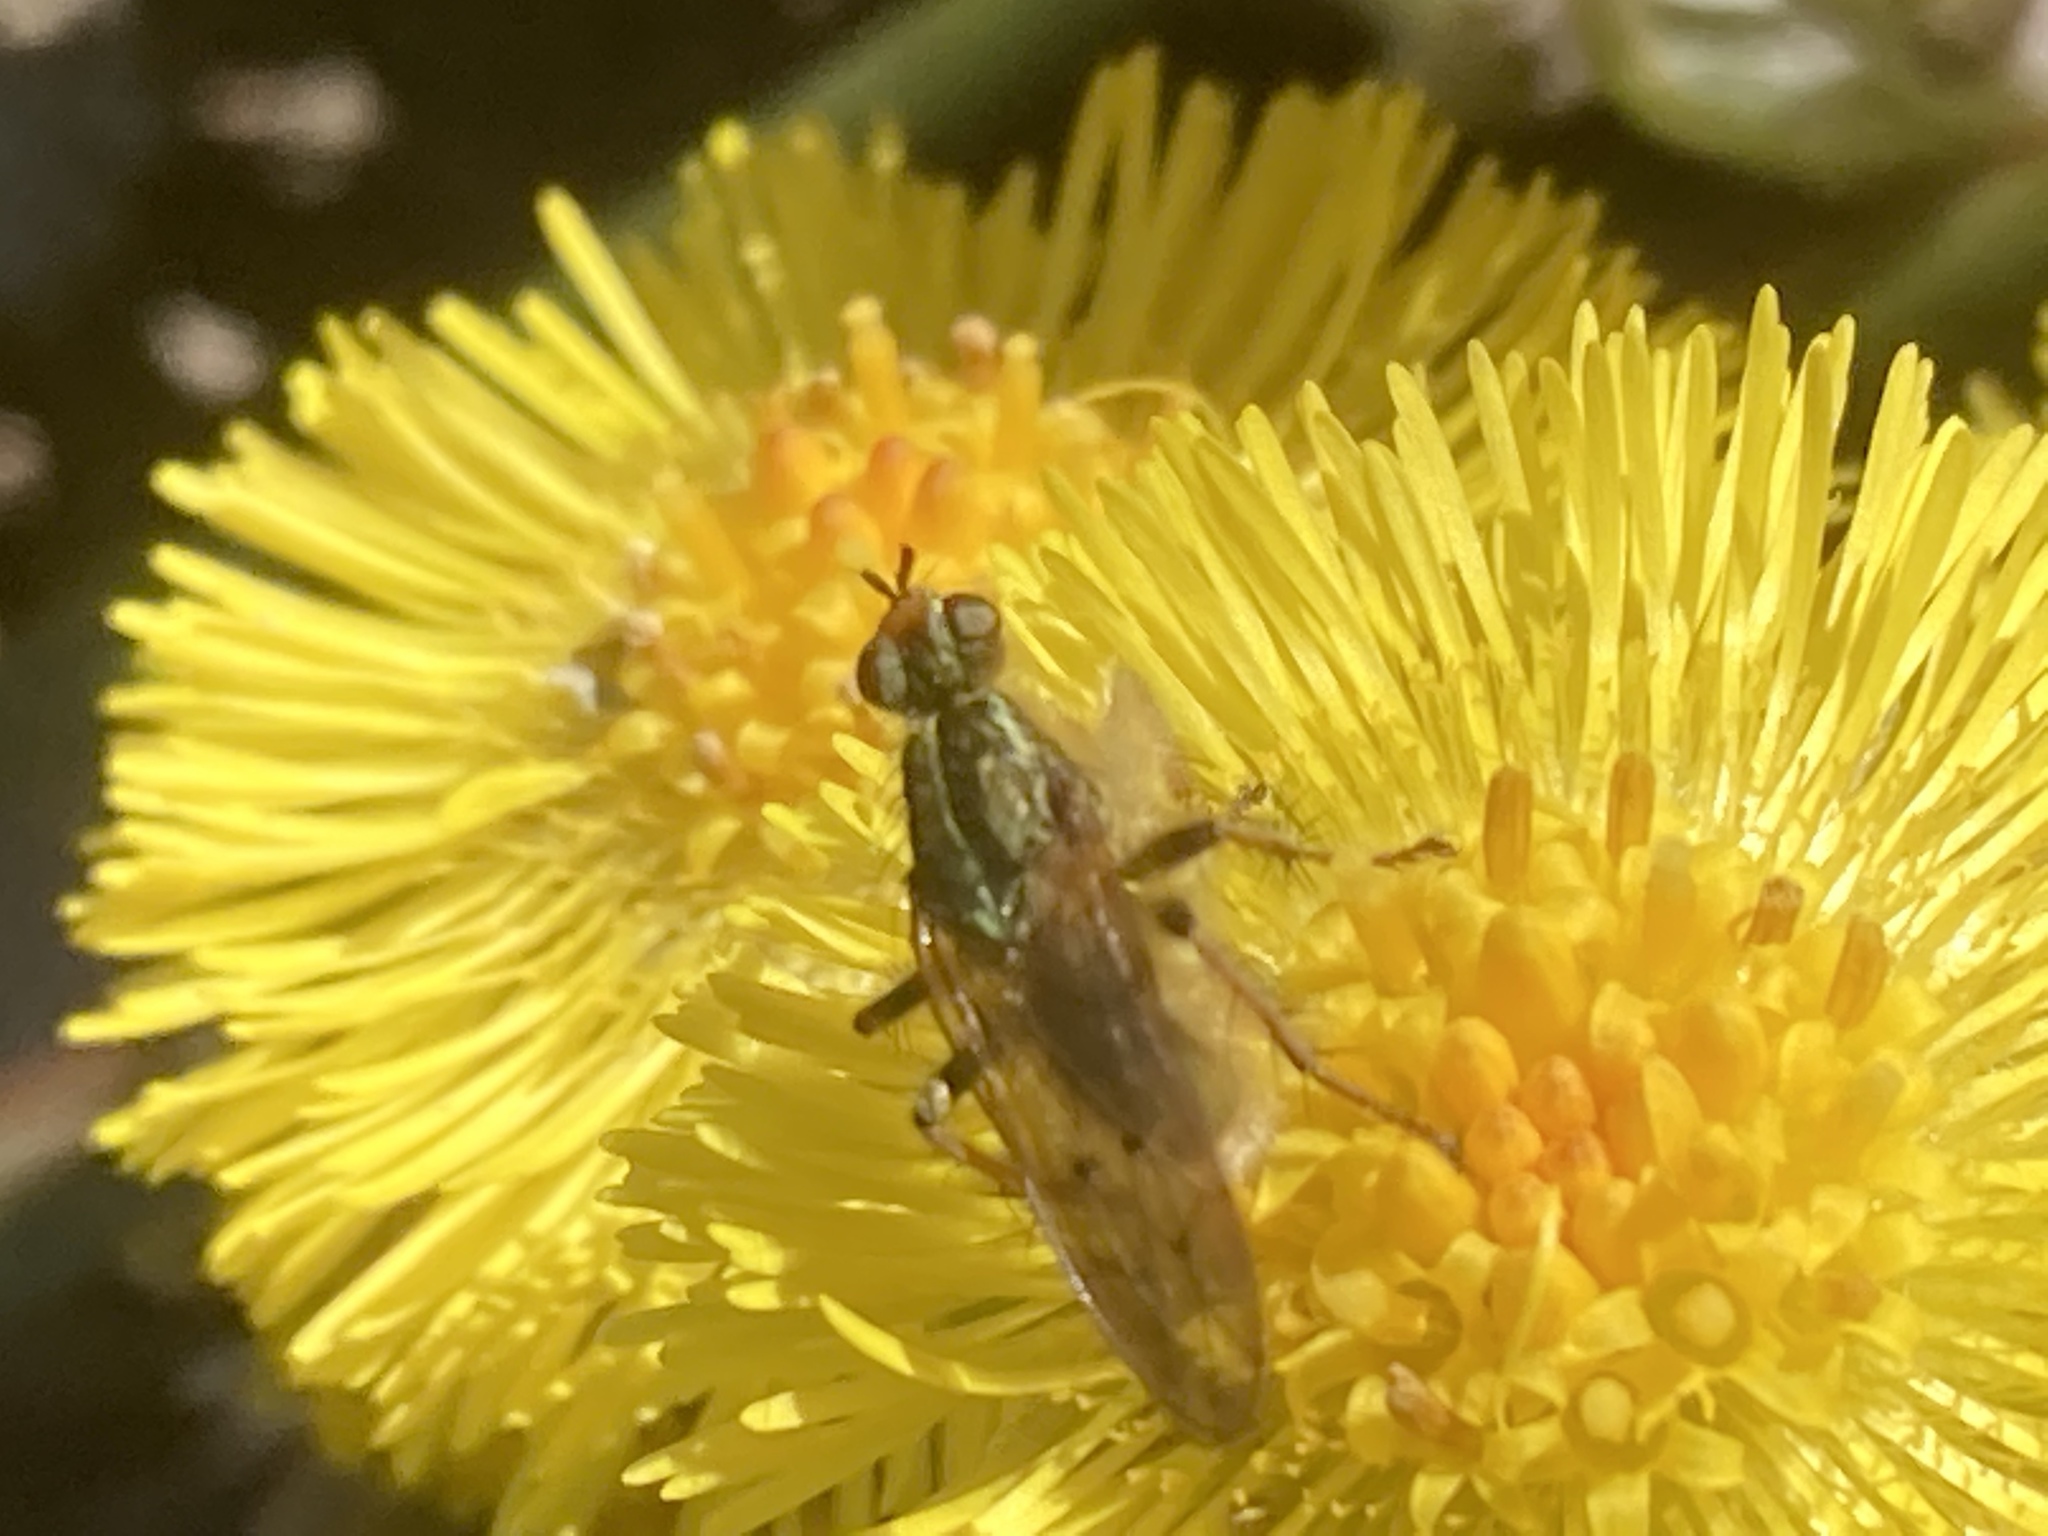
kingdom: Animalia
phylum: Arthropoda
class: Insecta
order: Diptera
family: Scathophagidae
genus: Scathophaga
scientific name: Scathophaga stercoraria
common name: Yellow dung fly
